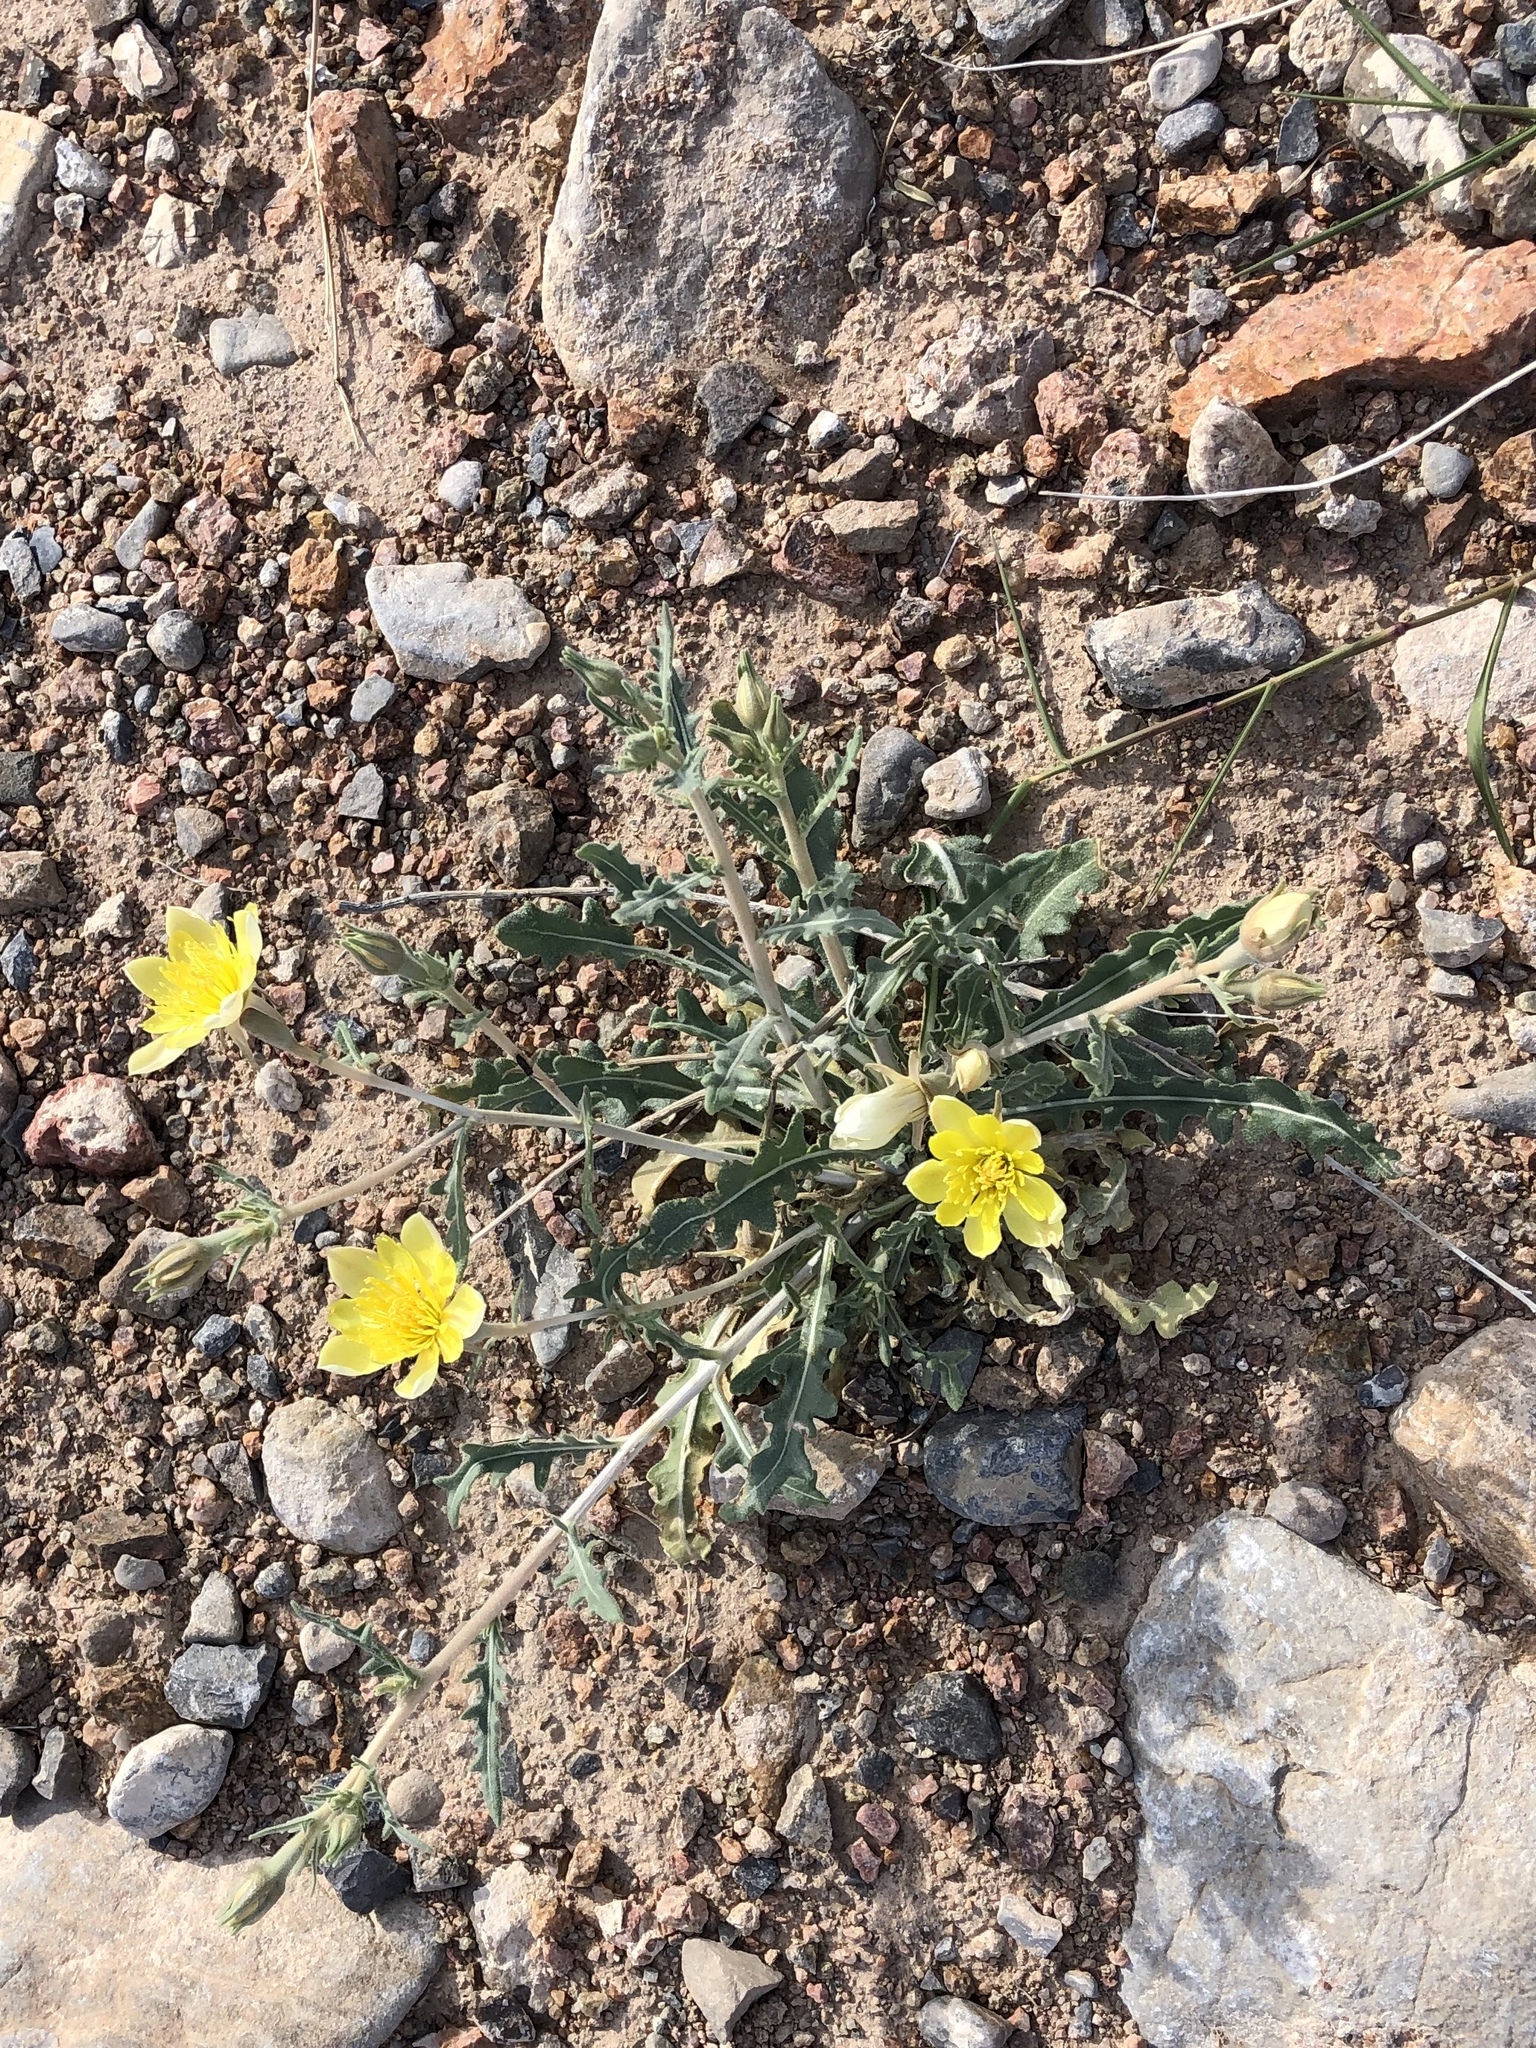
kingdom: Plantae
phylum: Tracheophyta
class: Magnoliopsida
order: Cornales
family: Loasaceae
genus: Mentzelia
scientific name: Mentzelia longiloba
